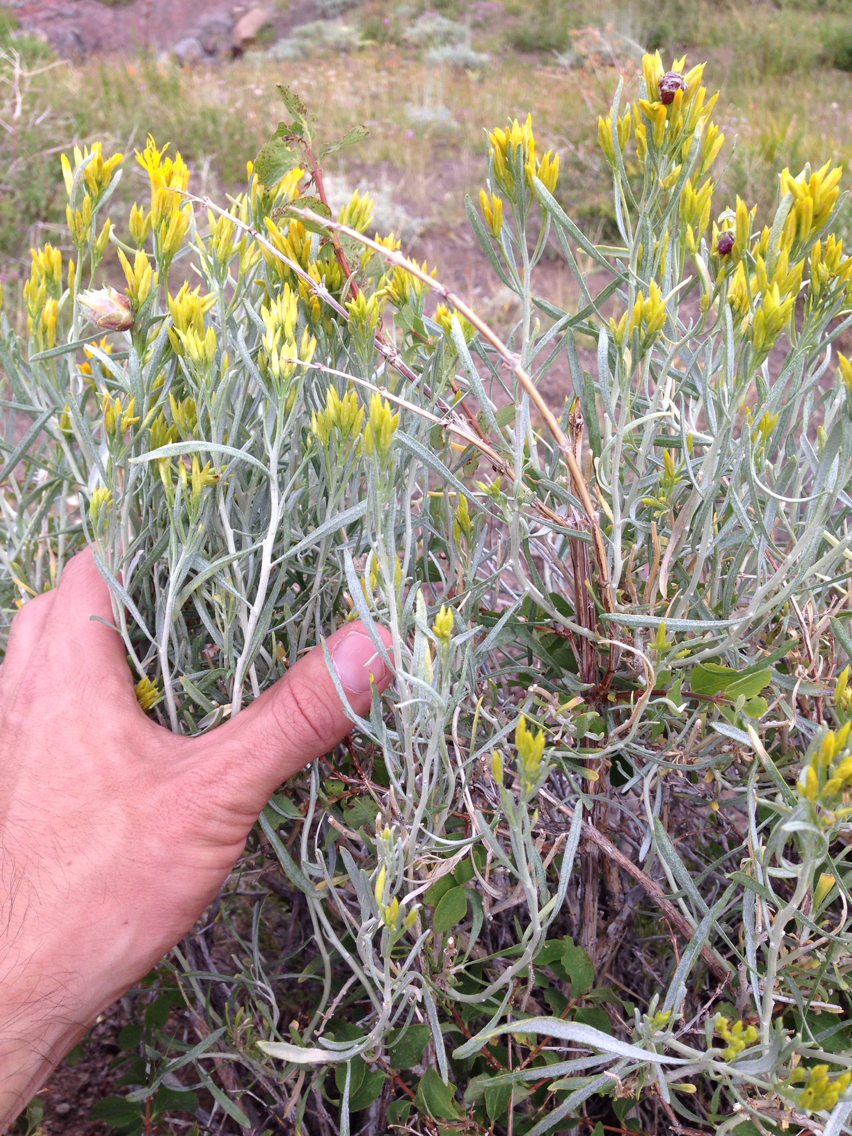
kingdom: Plantae
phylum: Tracheophyta
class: Magnoliopsida
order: Asterales
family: Asteraceae
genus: Ericameria
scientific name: Ericameria nauseosa
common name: Rubber rabbitbrush
